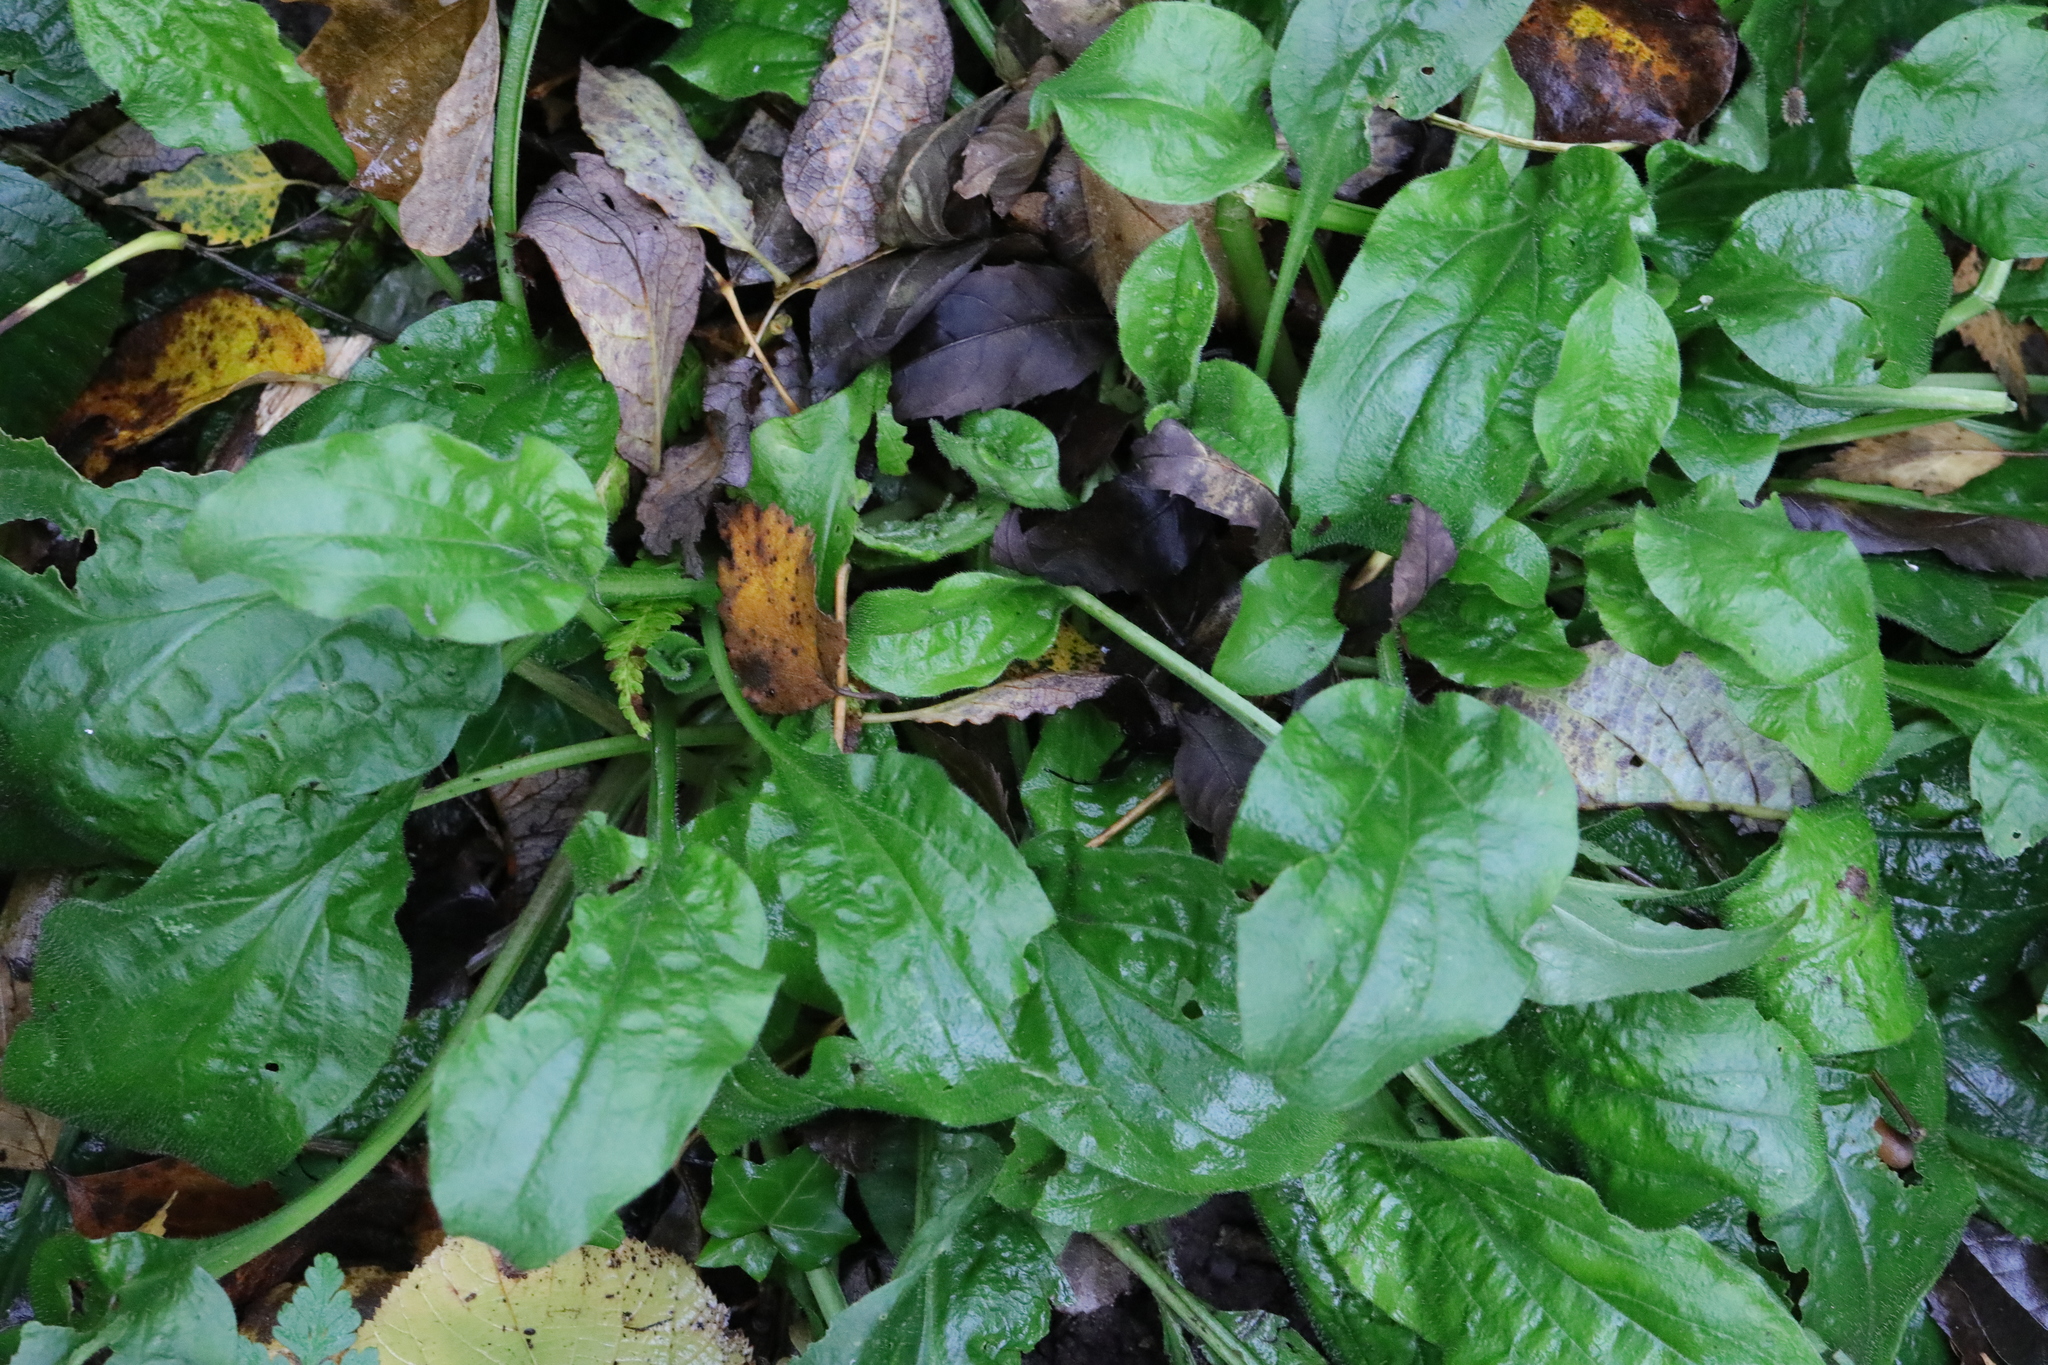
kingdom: Plantae
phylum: Tracheophyta
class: Magnoliopsida
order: Caryophyllales
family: Caryophyllaceae
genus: Silene
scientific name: Silene dioica
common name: Red campion
